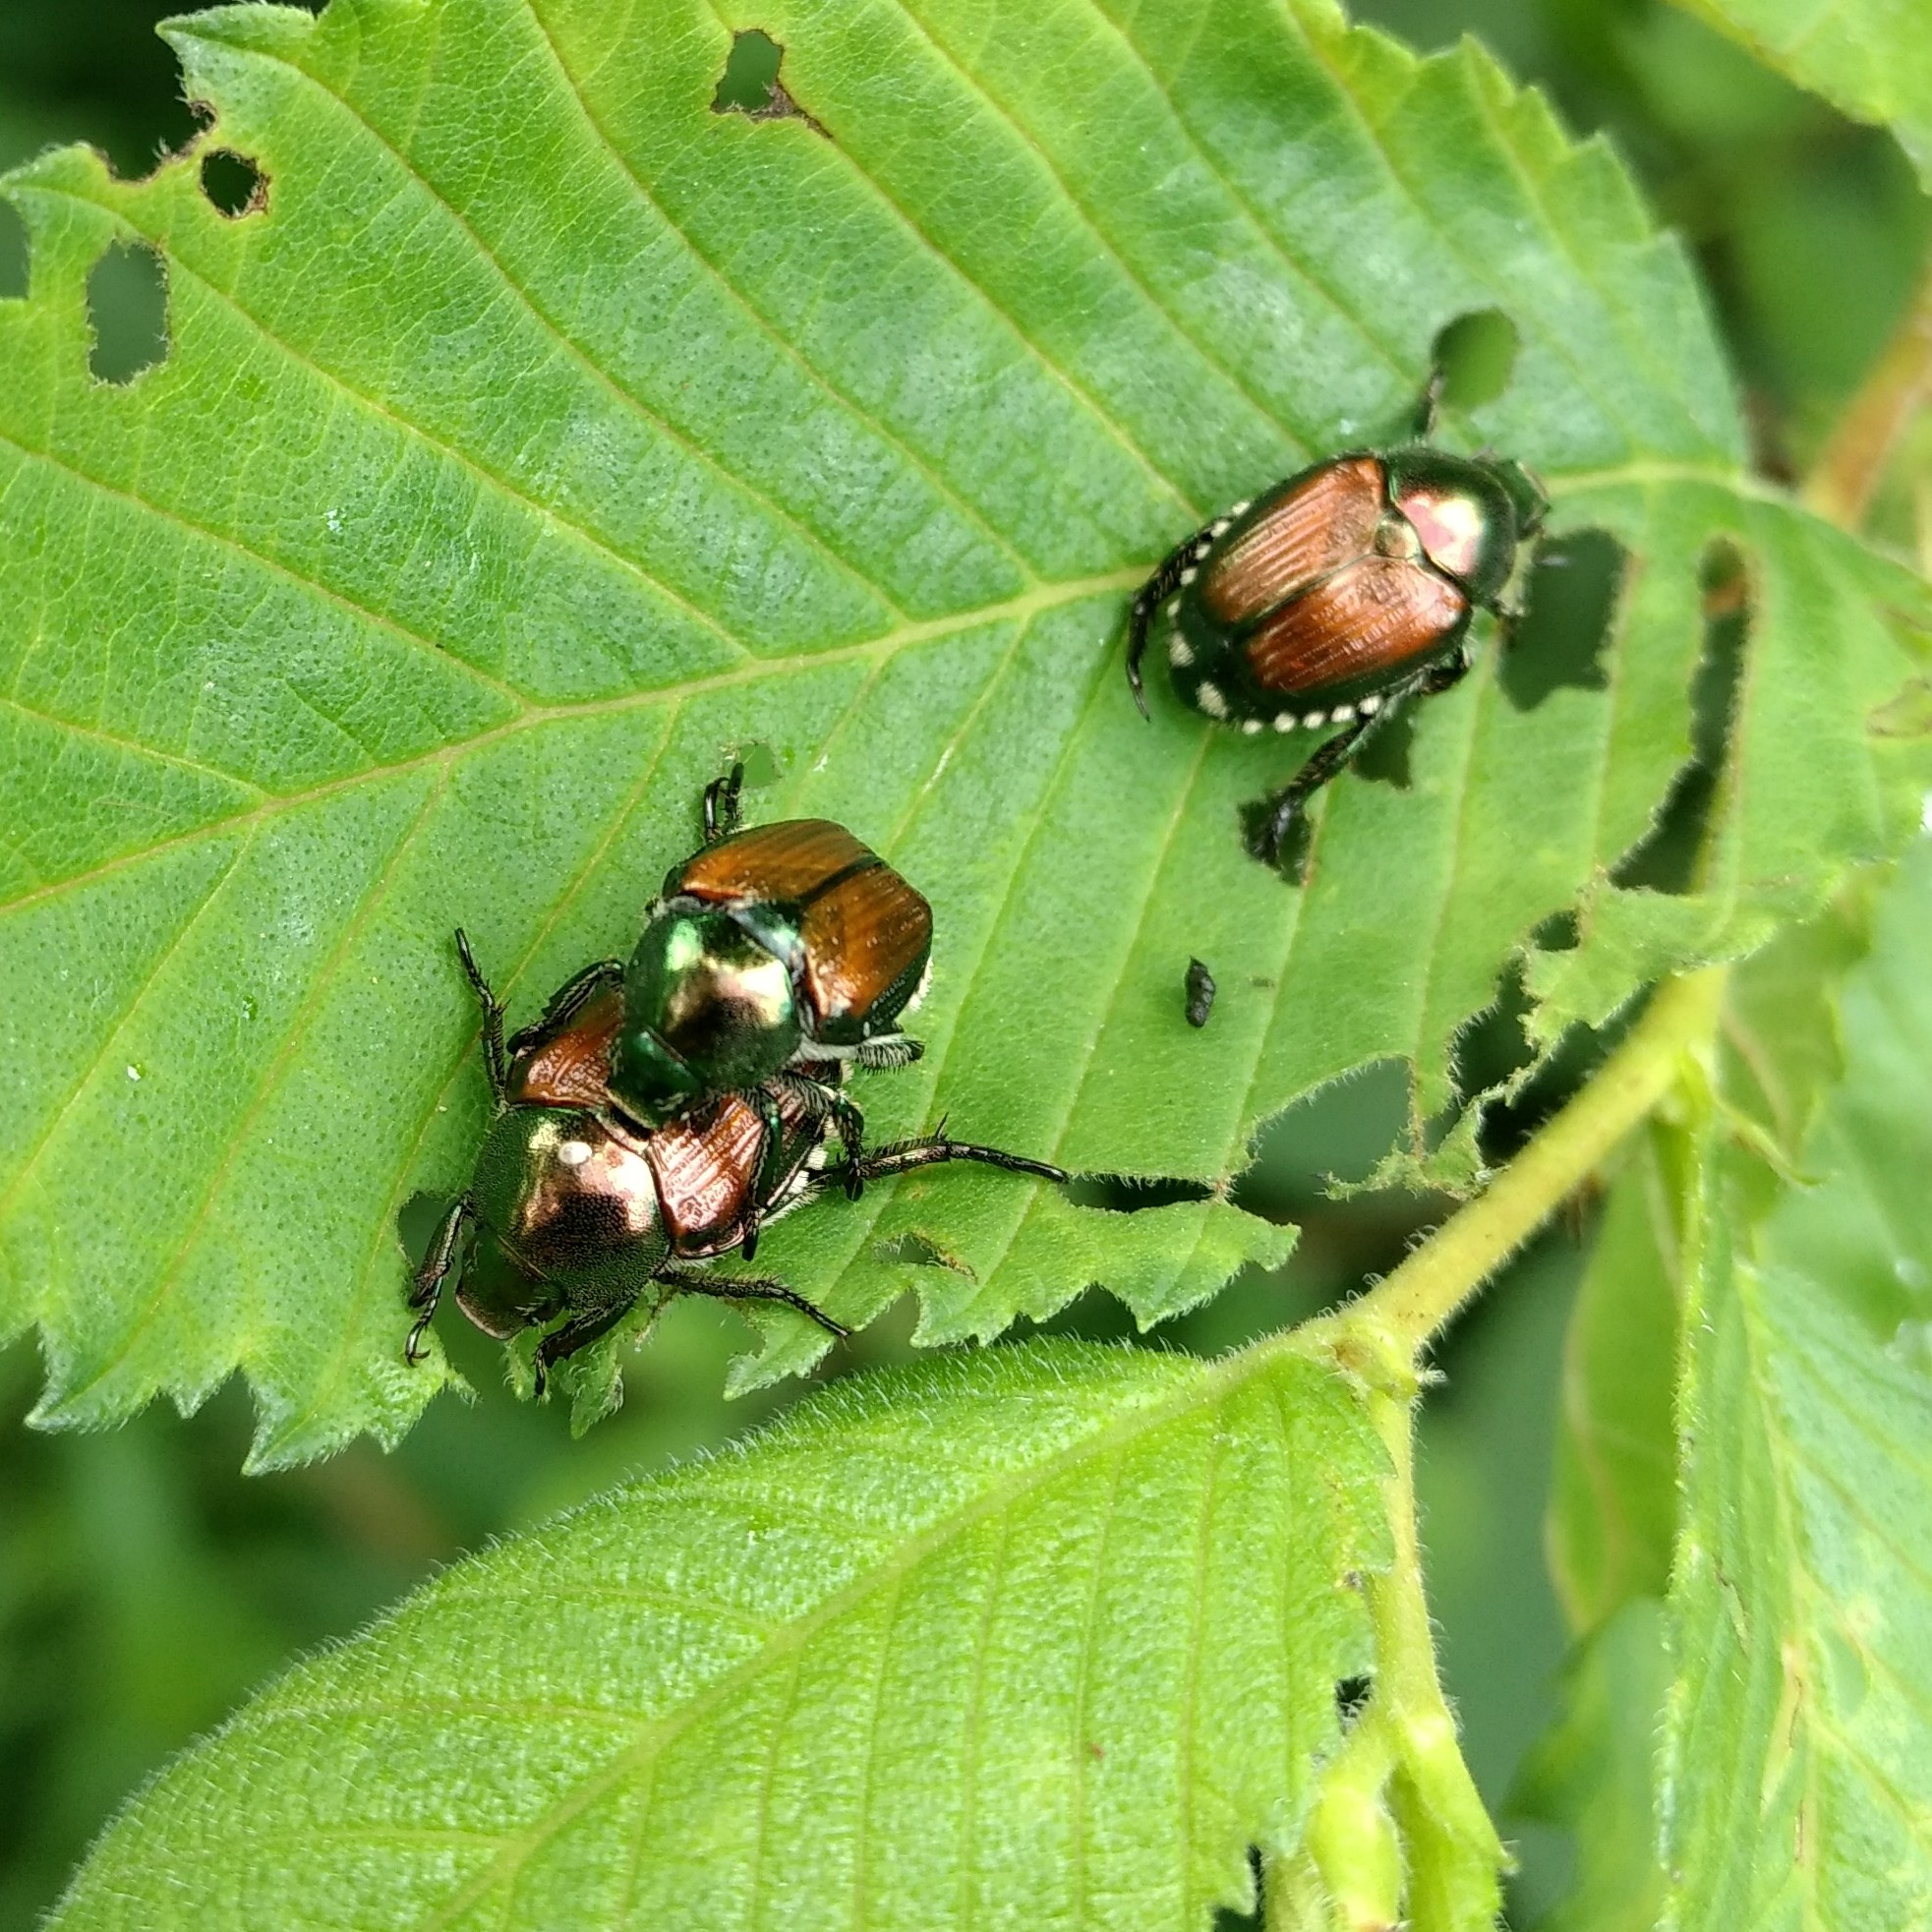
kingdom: Animalia
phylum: Arthropoda
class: Insecta
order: Diptera
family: Tachinidae
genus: Istocheta
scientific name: Istocheta aldrichi
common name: Parasitic wasp
